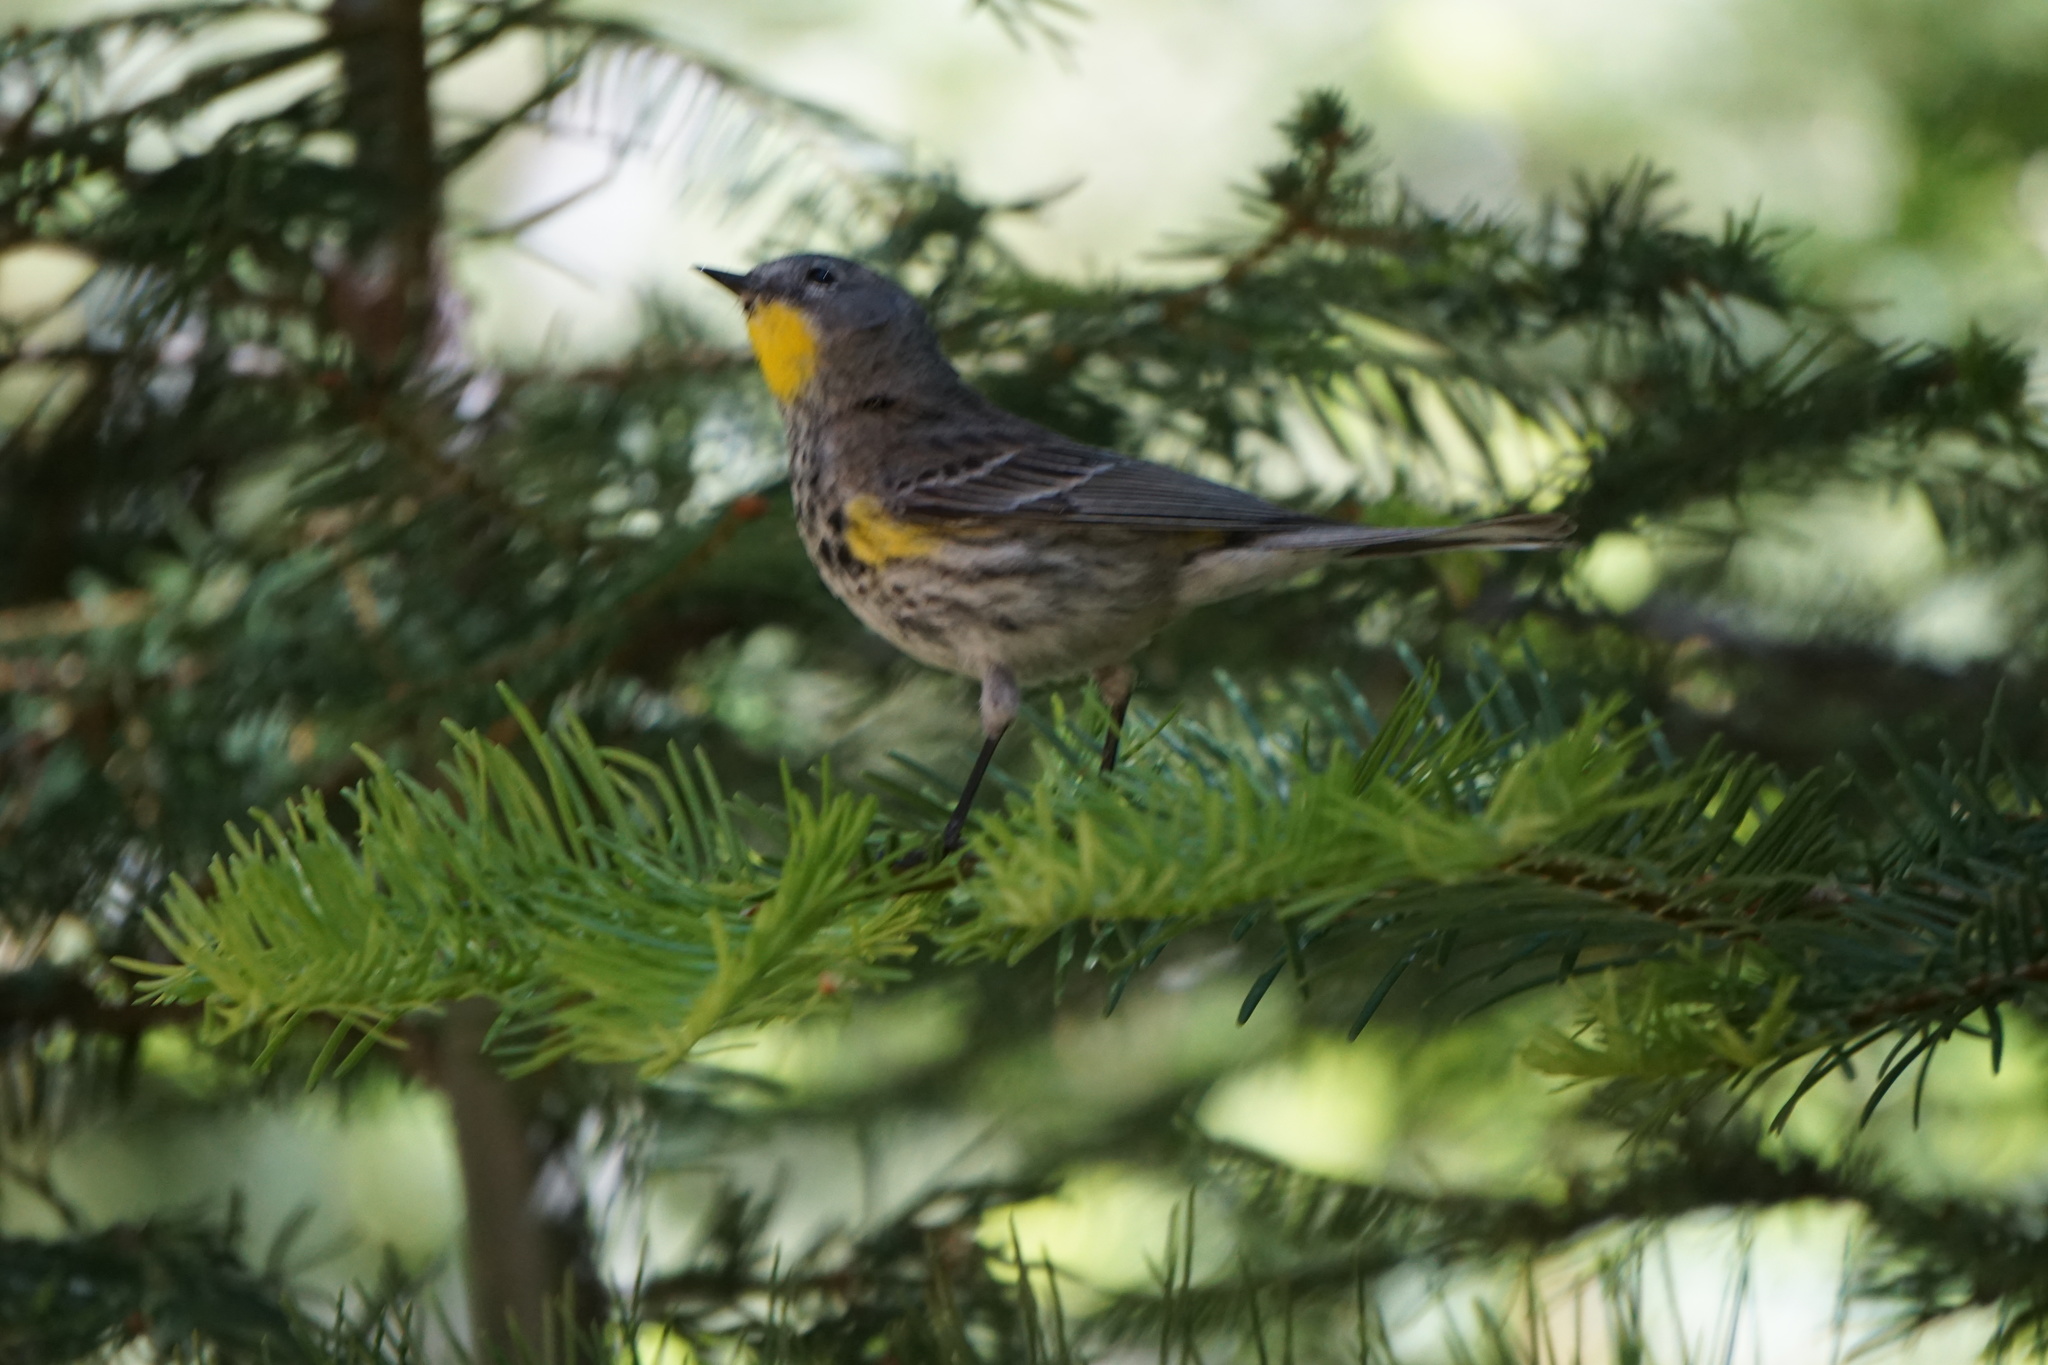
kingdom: Animalia
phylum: Chordata
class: Aves
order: Passeriformes
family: Parulidae
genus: Setophaga
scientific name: Setophaga coronata
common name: Myrtle warbler
